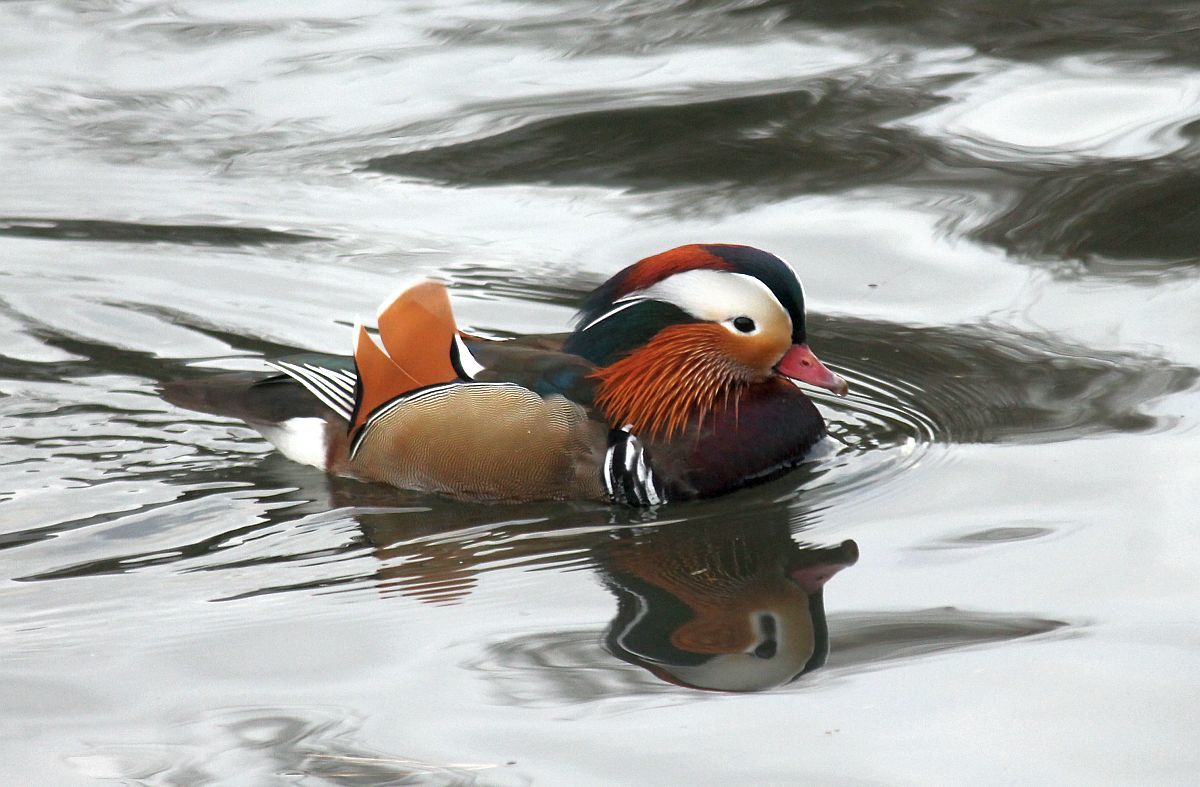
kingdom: Animalia
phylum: Chordata
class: Aves
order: Anseriformes
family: Anatidae
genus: Aix
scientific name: Aix galericulata
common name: Mandarin duck
